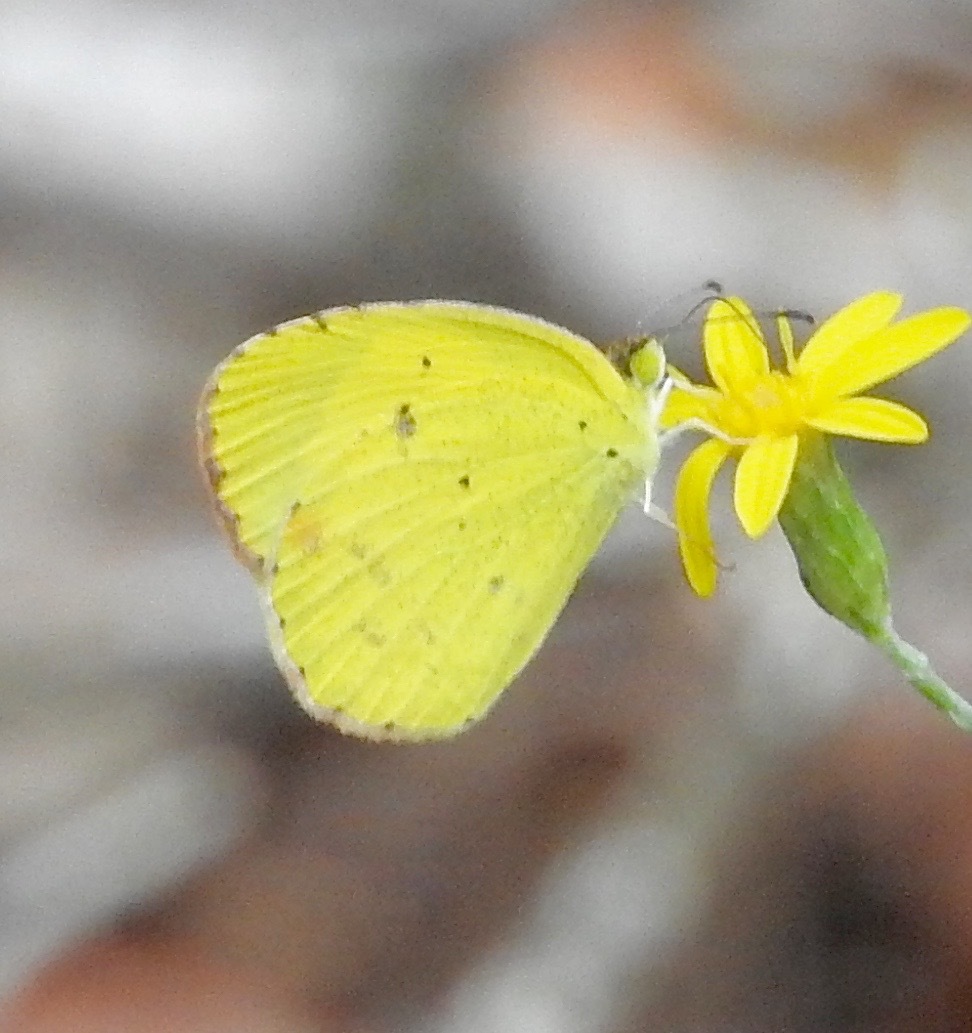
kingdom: Animalia
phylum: Arthropoda
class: Insecta
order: Lepidoptera
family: Pieridae
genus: Pyrisitia
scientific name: Pyrisitia lisa
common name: Little yellow
